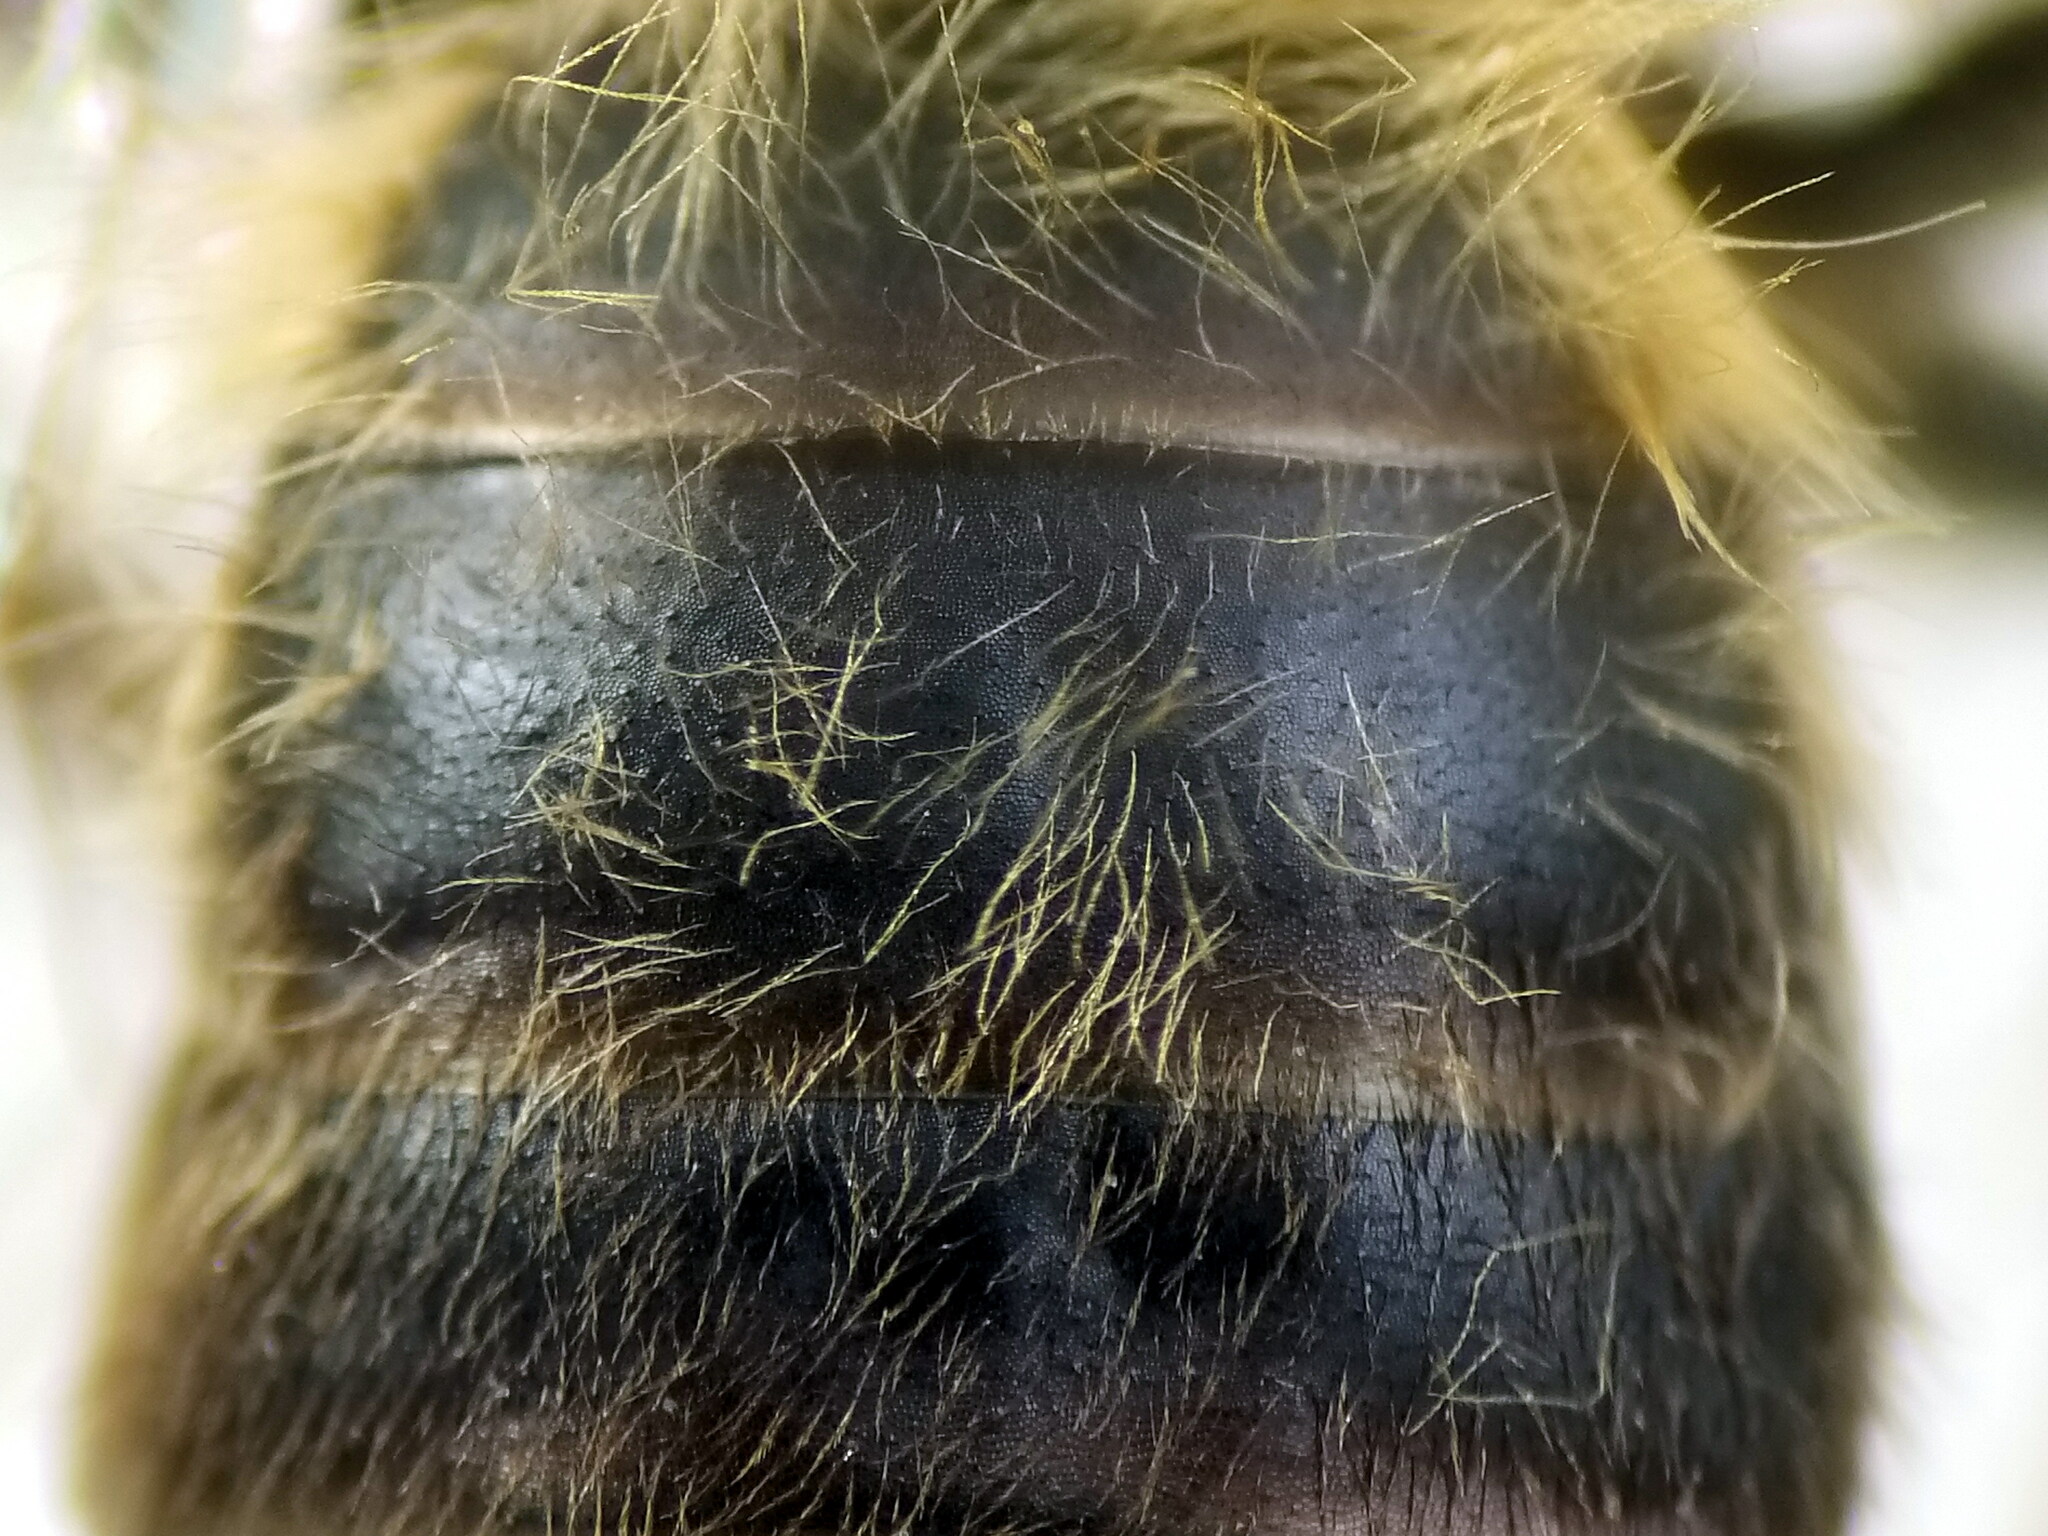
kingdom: Animalia
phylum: Arthropoda
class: Insecta
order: Hymenoptera
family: Andrenidae
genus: Andrena
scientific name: Andrena villipes
